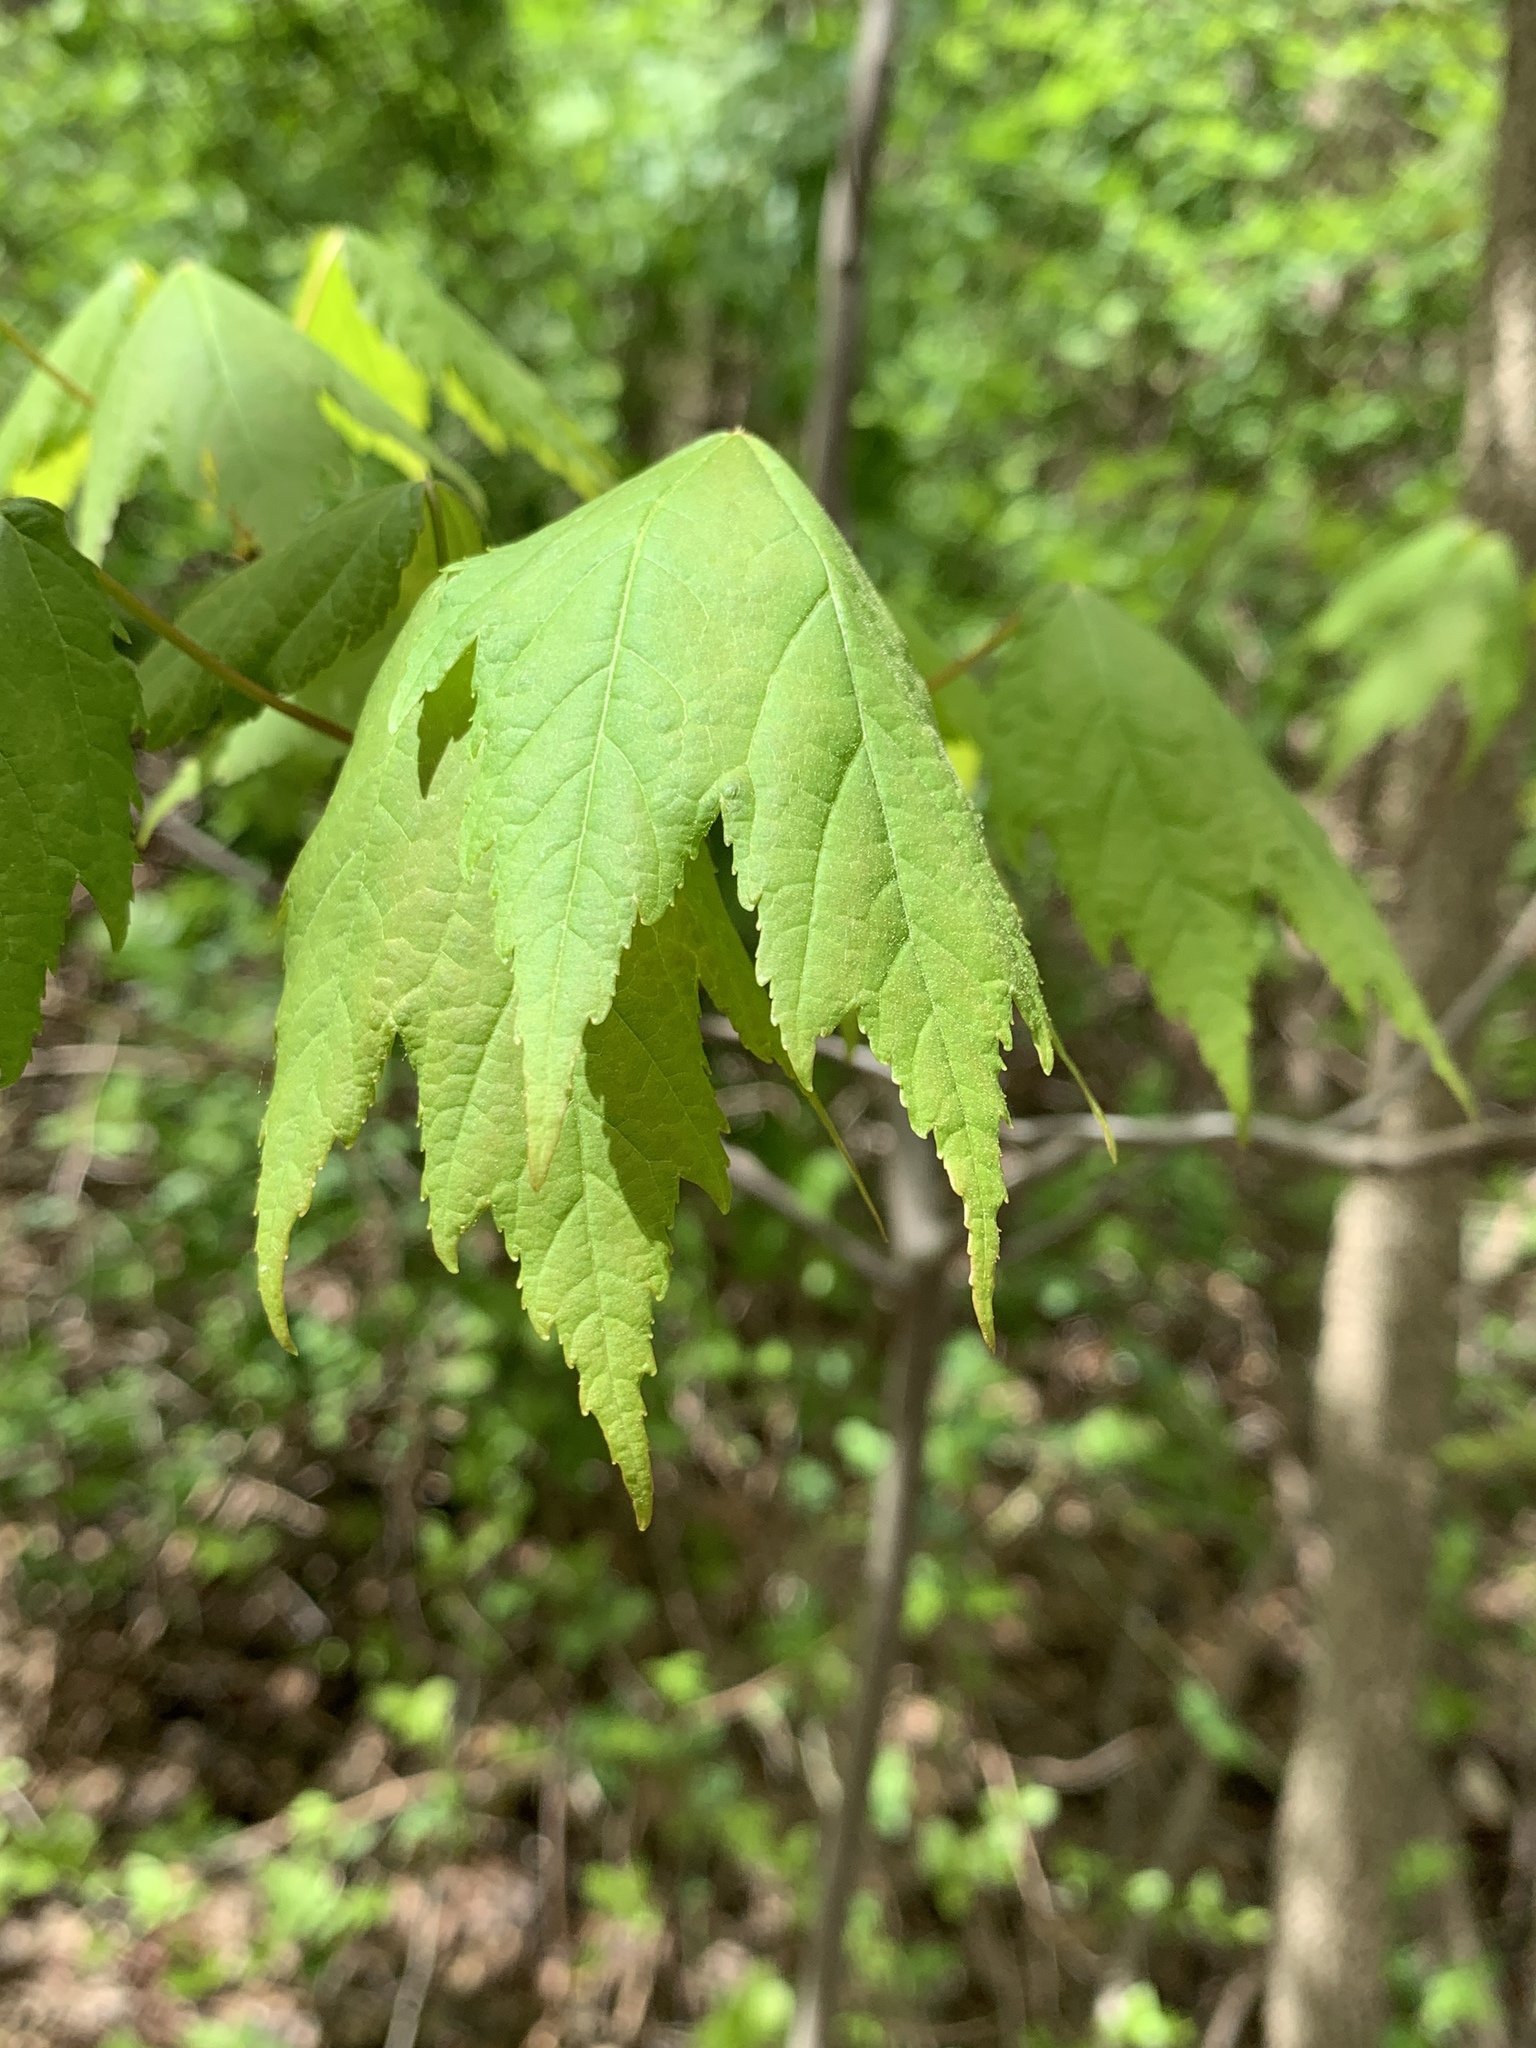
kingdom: Plantae
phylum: Tracheophyta
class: Magnoliopsida
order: Sapindales
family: Sapindaceae
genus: Acer
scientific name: Acer rubrum
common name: Red maple
